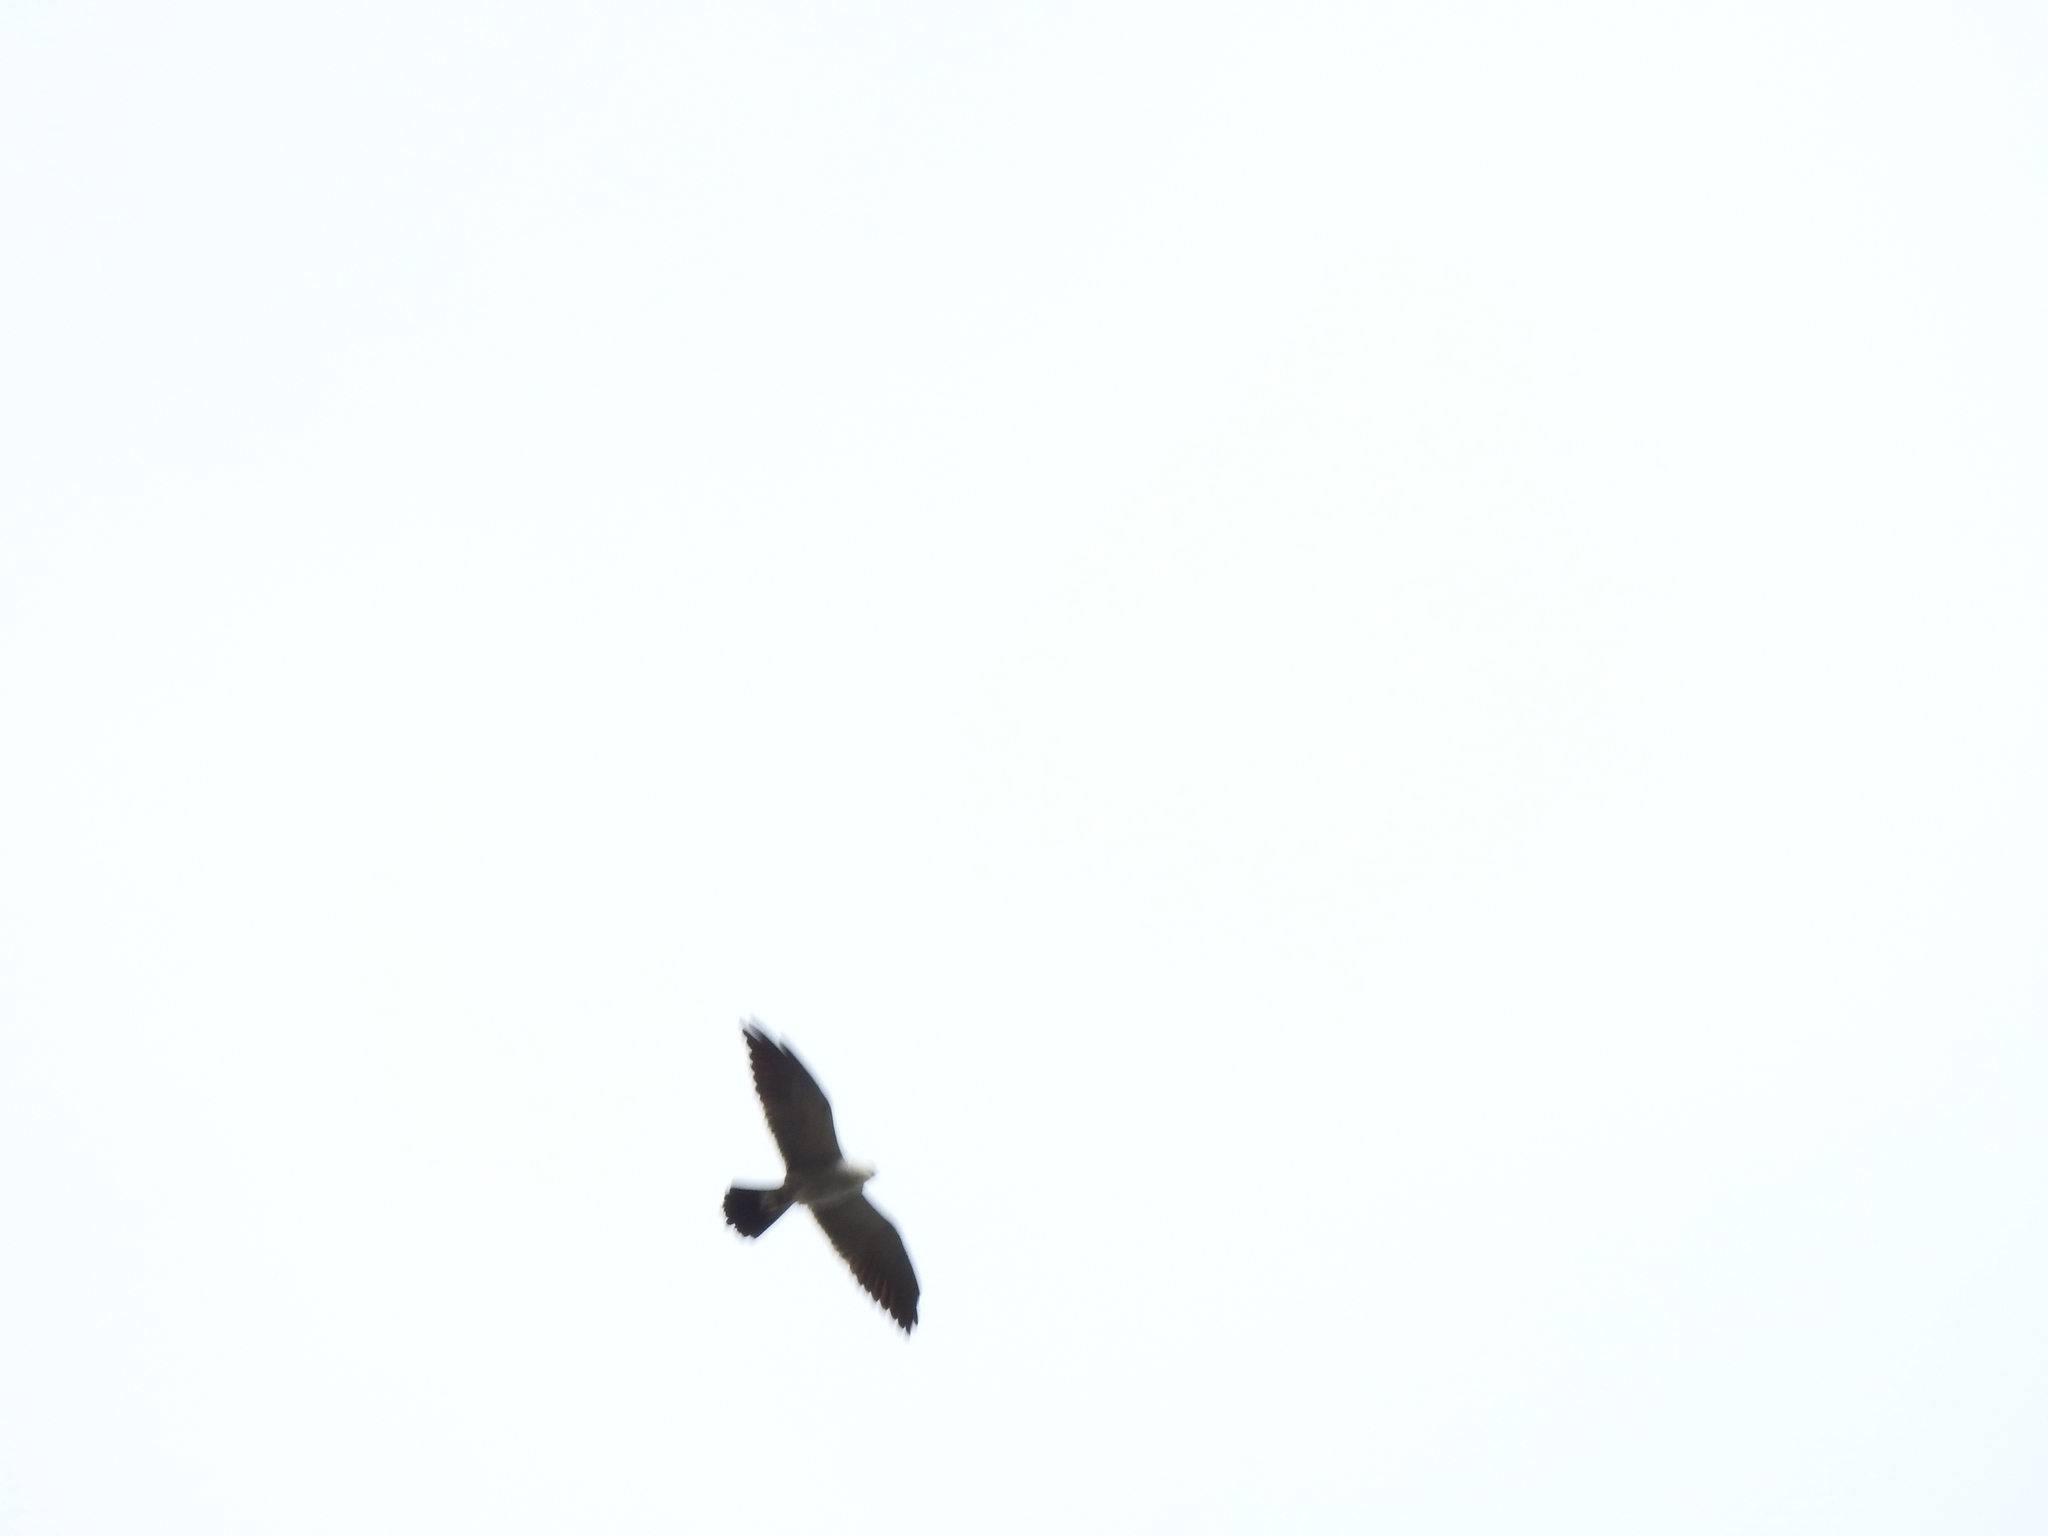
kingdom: Animalia
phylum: Chordata
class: Aves
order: Accipitriformes
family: Accipitridae
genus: Ictinia
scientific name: Ictinia mississippiensis
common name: Mississippi kite
